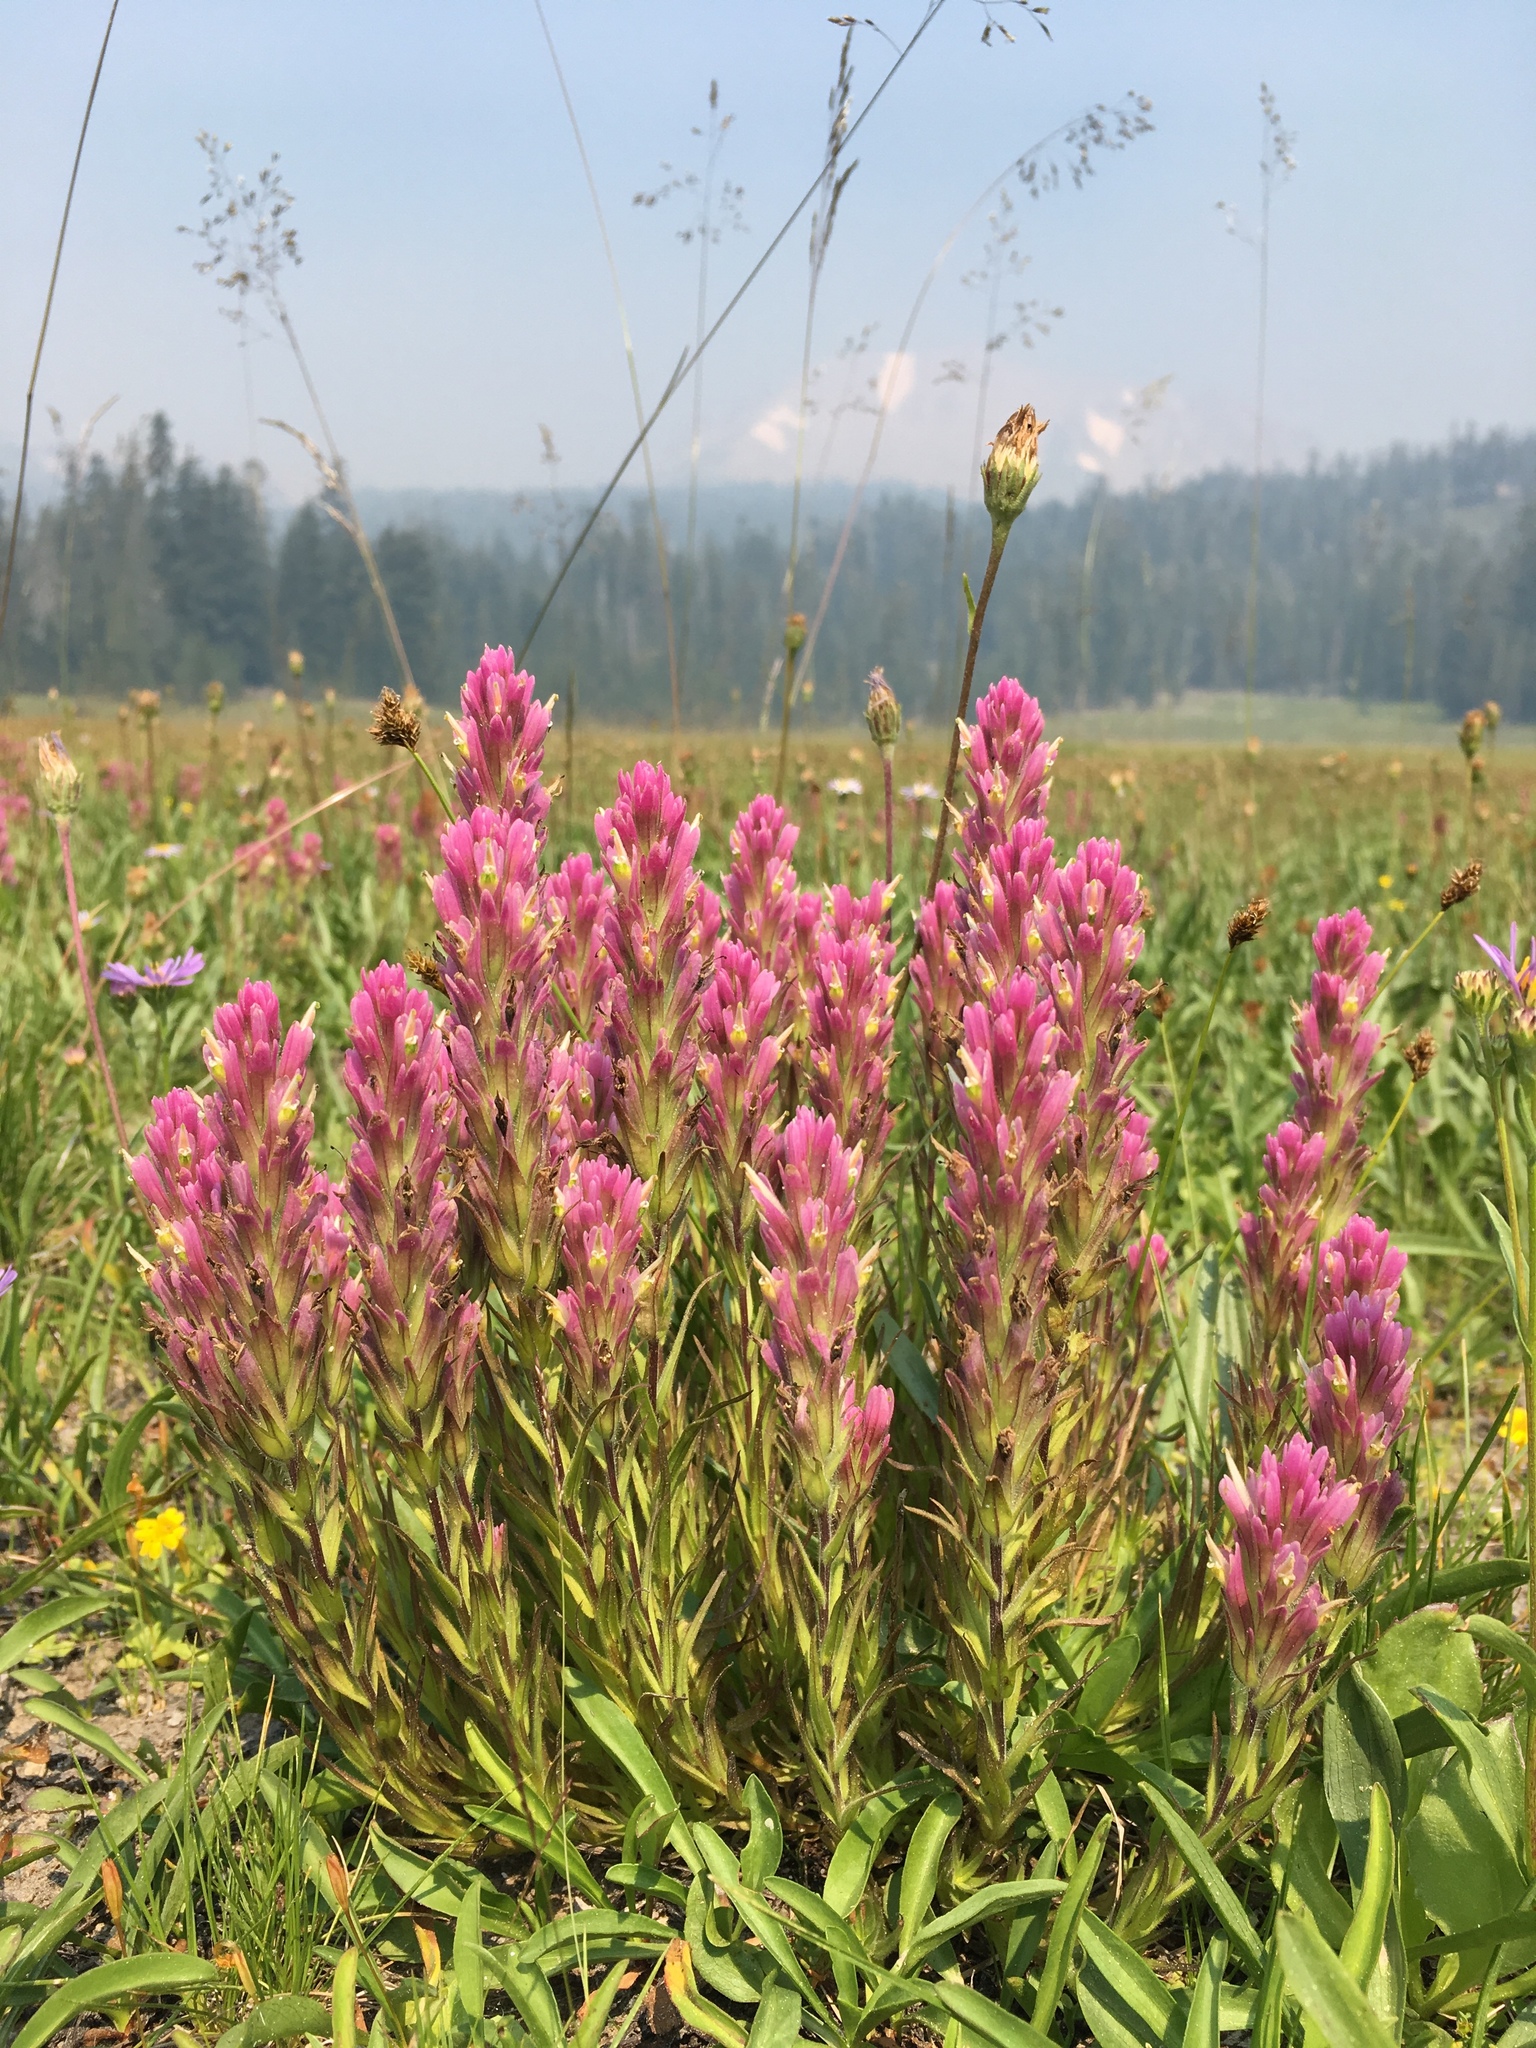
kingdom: Plantae
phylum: Tracheophyta
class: Magnoliopsida
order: Lamiales
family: Orobanchaceae
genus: Castilleja
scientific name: Castilleja lassenensis
